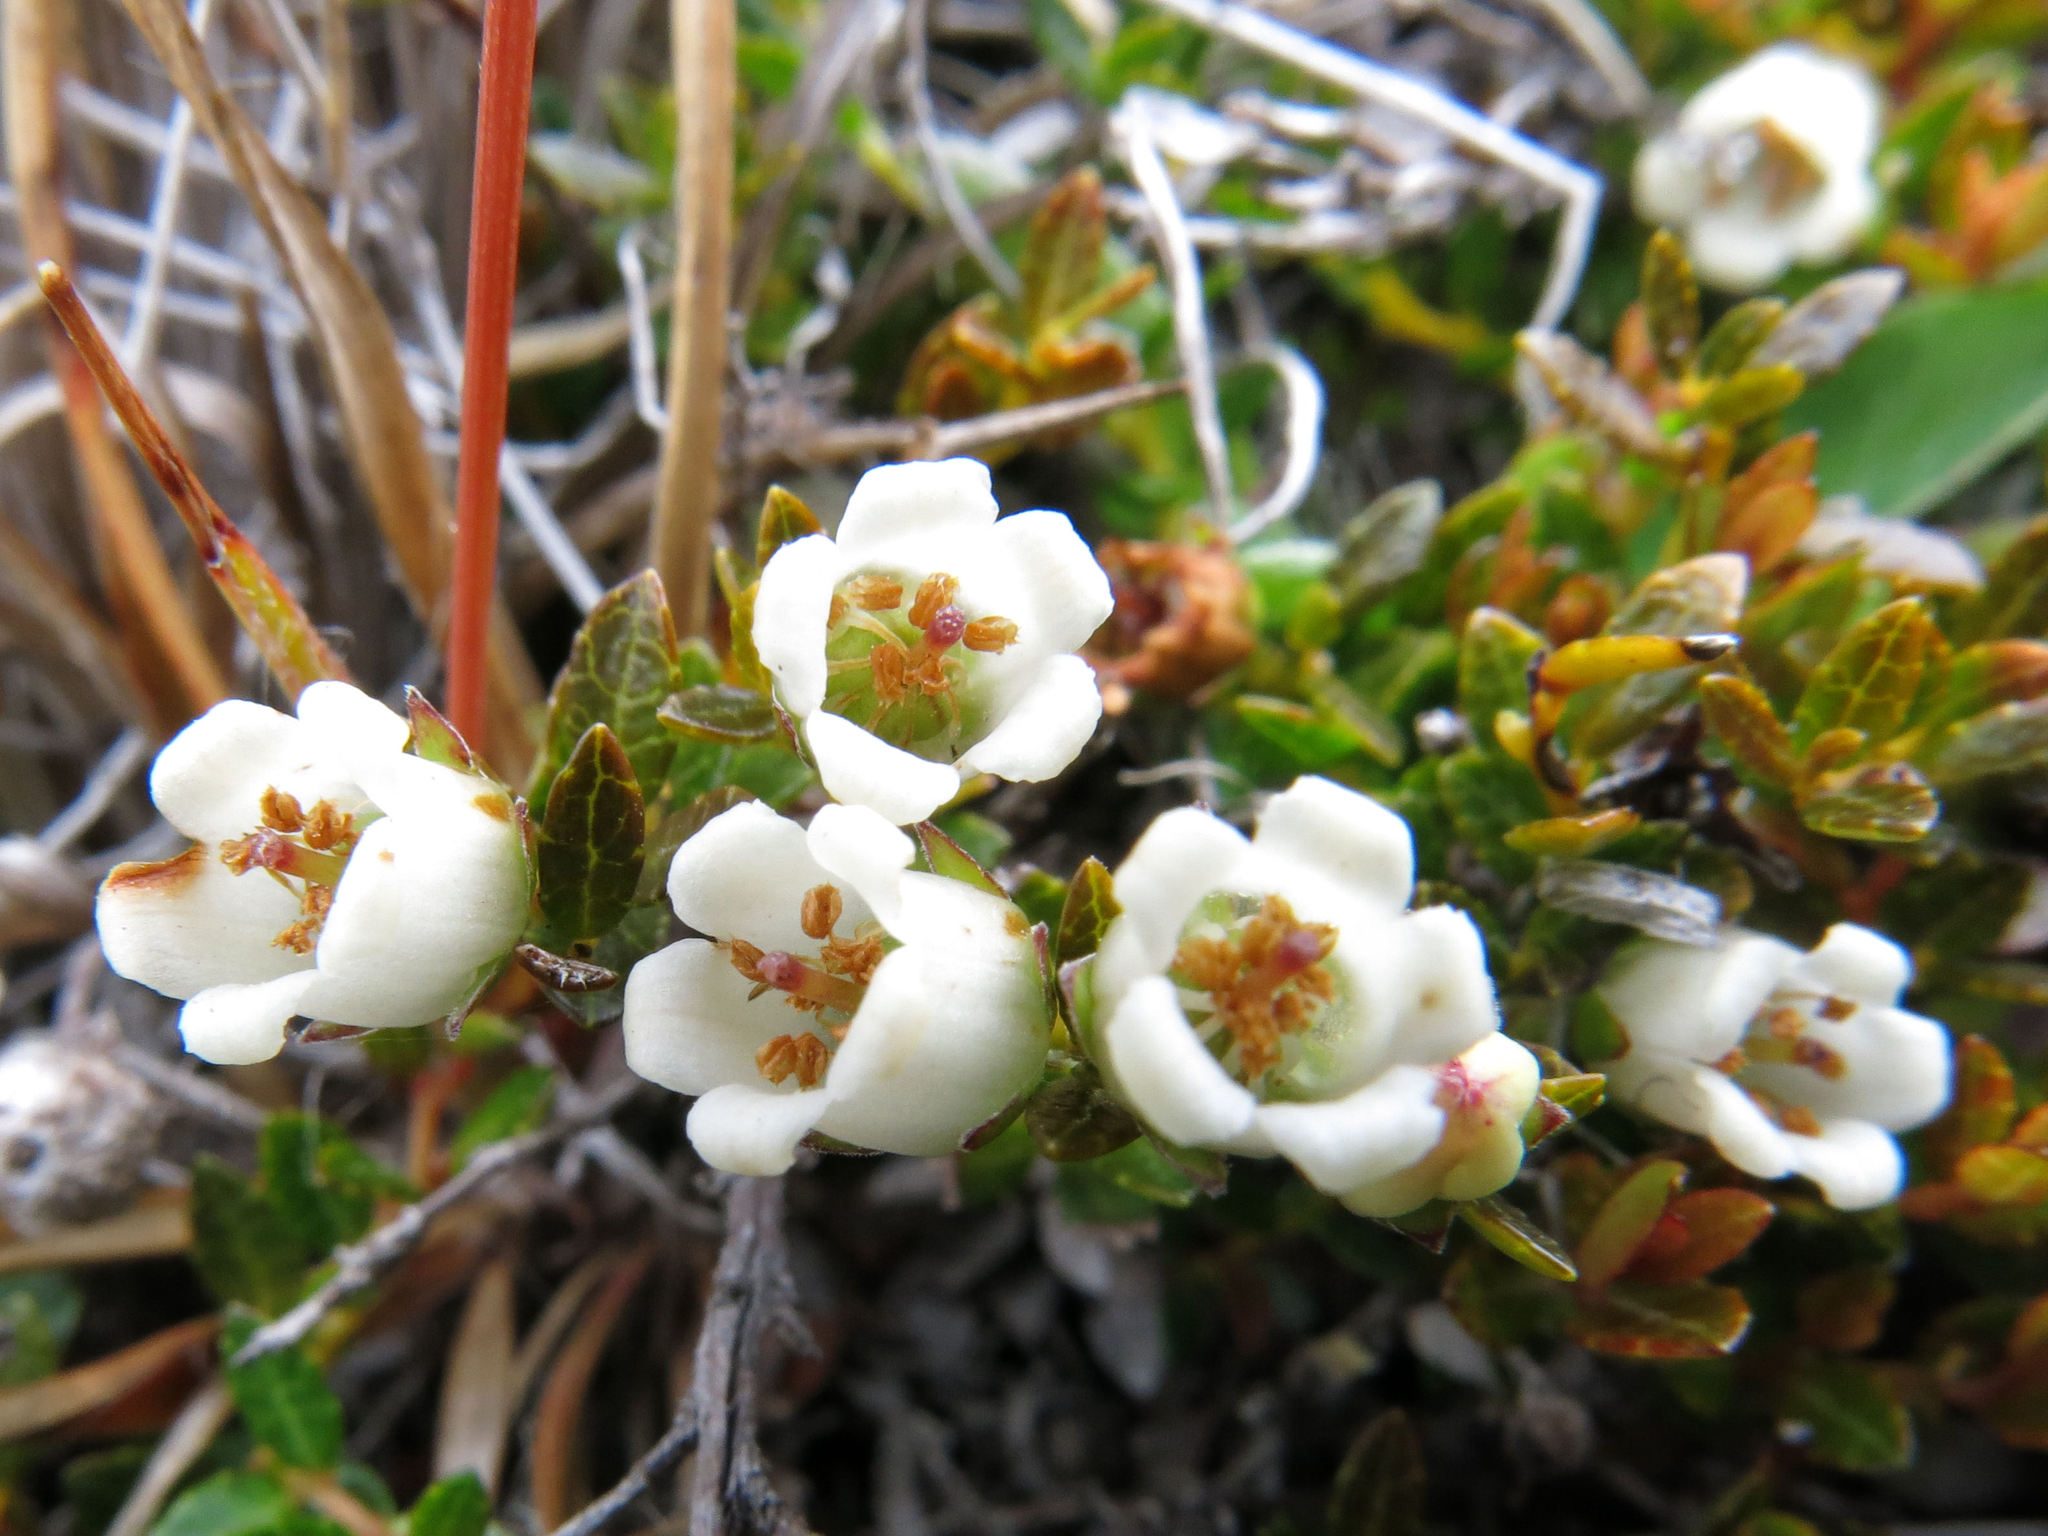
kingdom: Plantae
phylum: Tracheophyta
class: Magnoliopsida
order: Ericales
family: Ericaceae
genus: Gaultheria
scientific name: Gaultheria parvula
